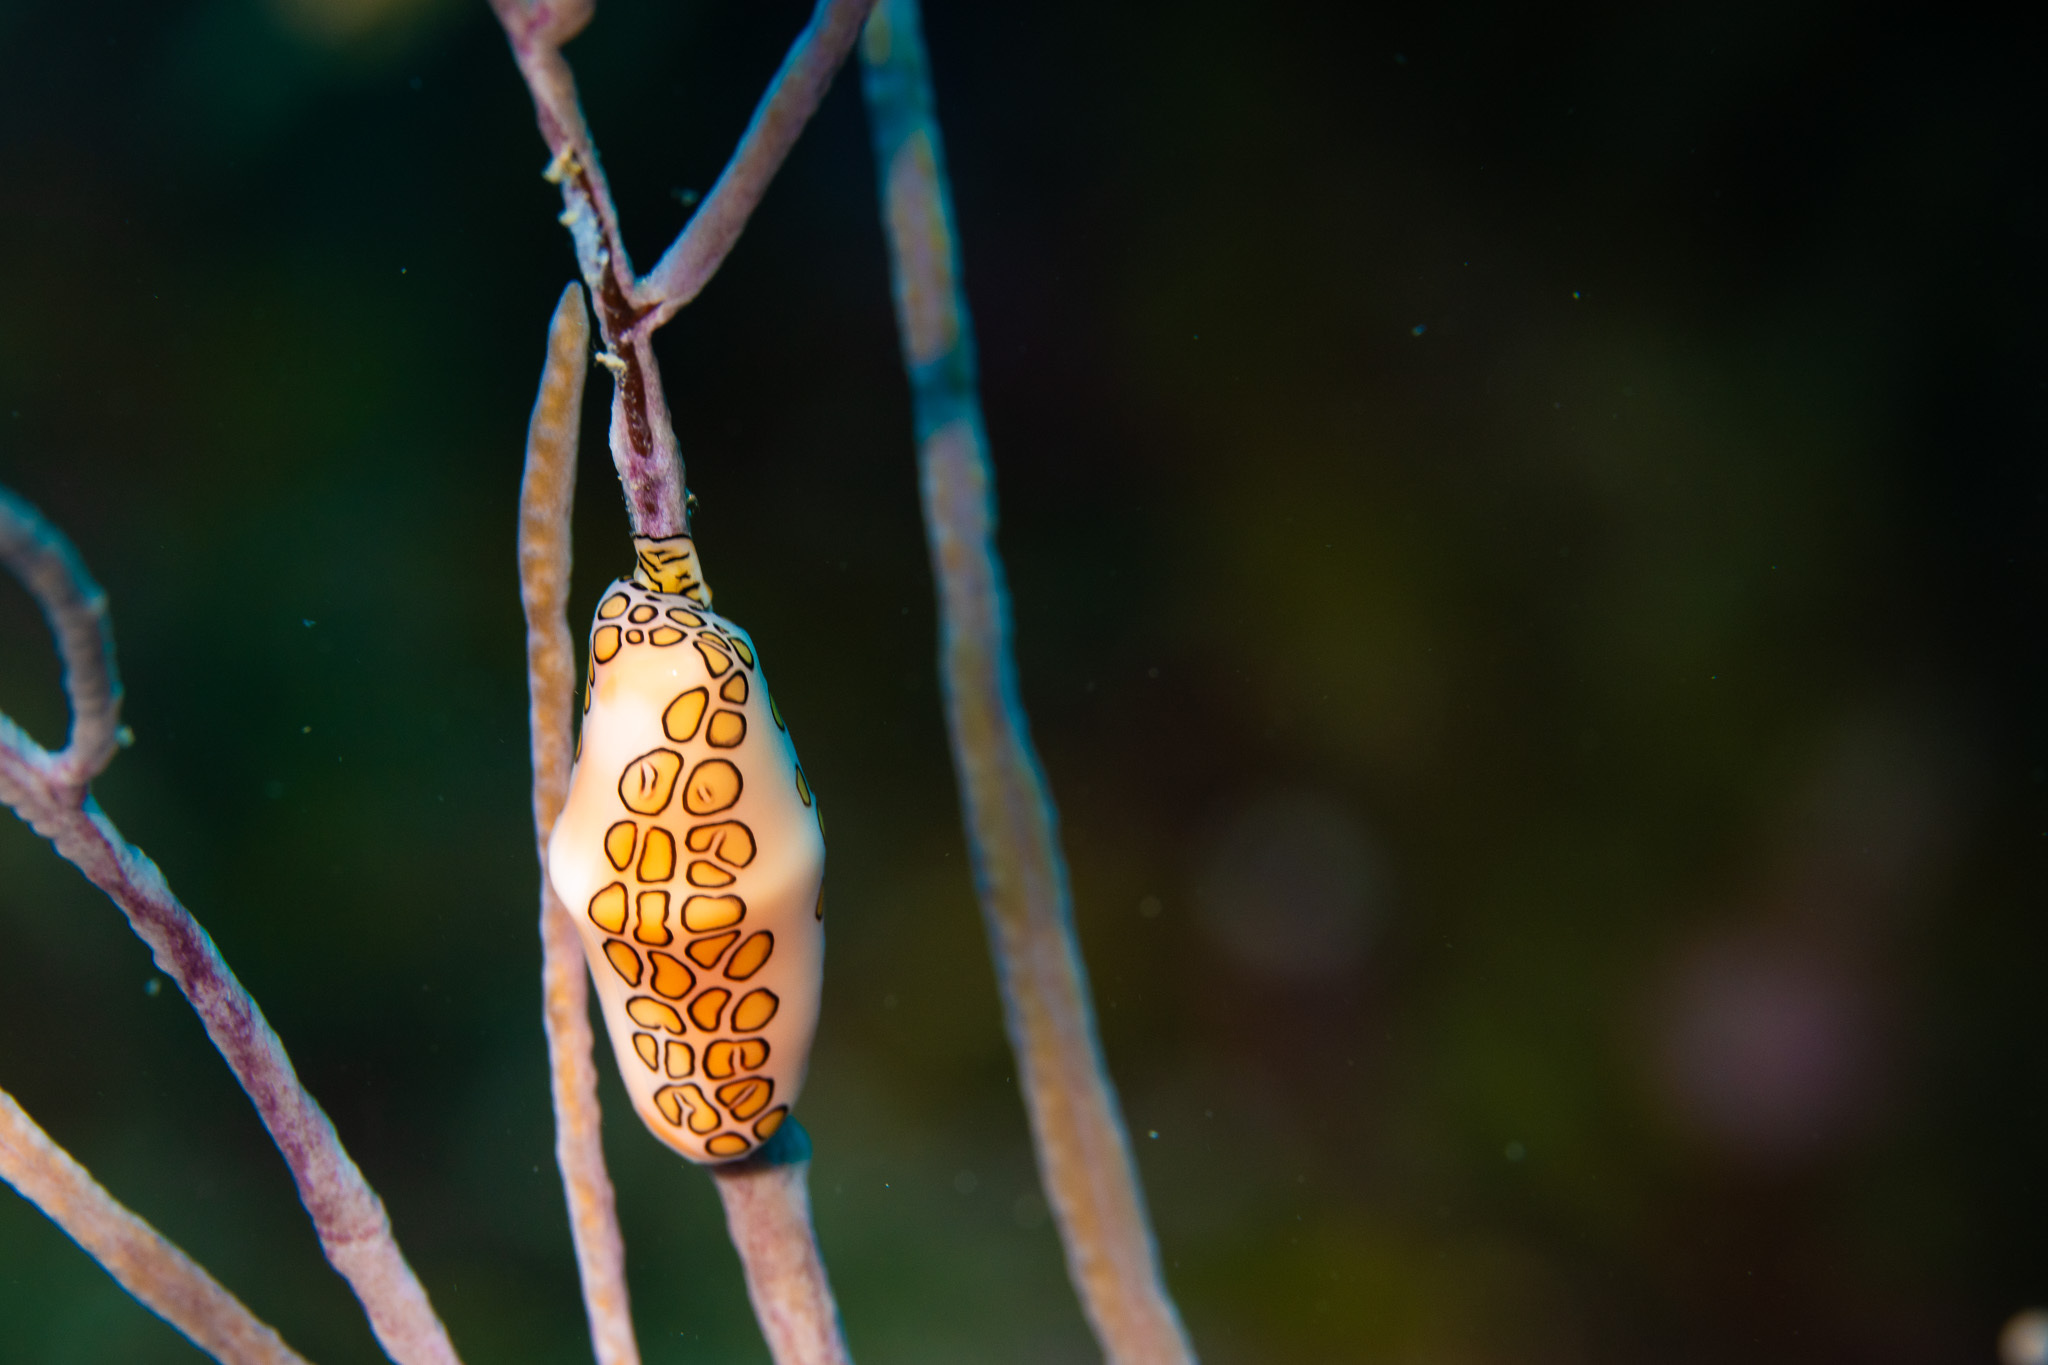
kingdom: Animalia
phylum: Mollusca
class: Gastropoda
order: Littorinimorpha
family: Ovulidae
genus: Cyphoma
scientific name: Cyphoma gibbosum
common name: Flamingo tongue
